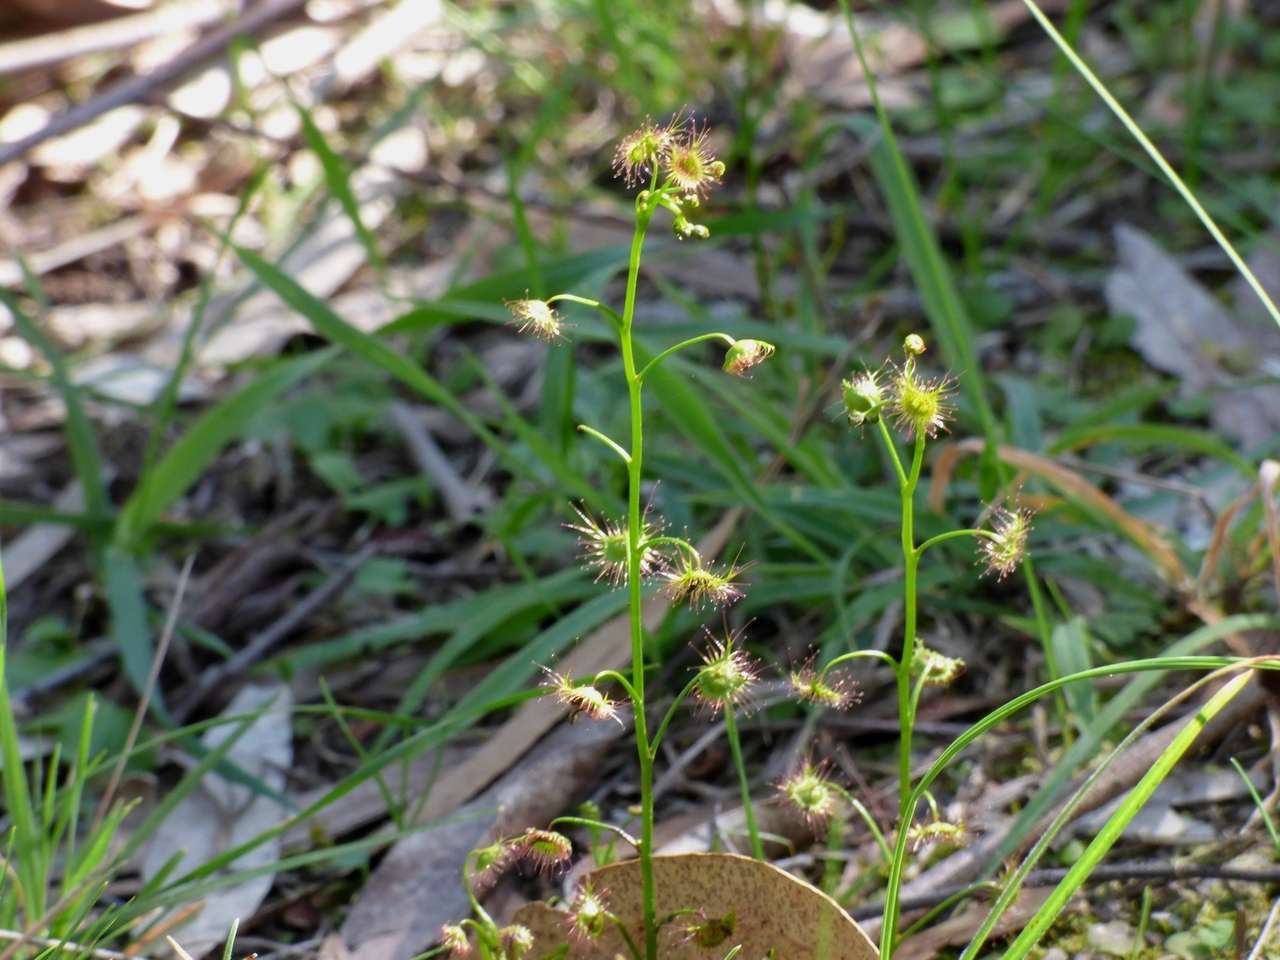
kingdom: Plantae
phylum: Tracheophyta
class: Magnoliopsida
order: Caryophyllales
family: Droseraceae
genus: Drosera
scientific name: Drosera peltata
